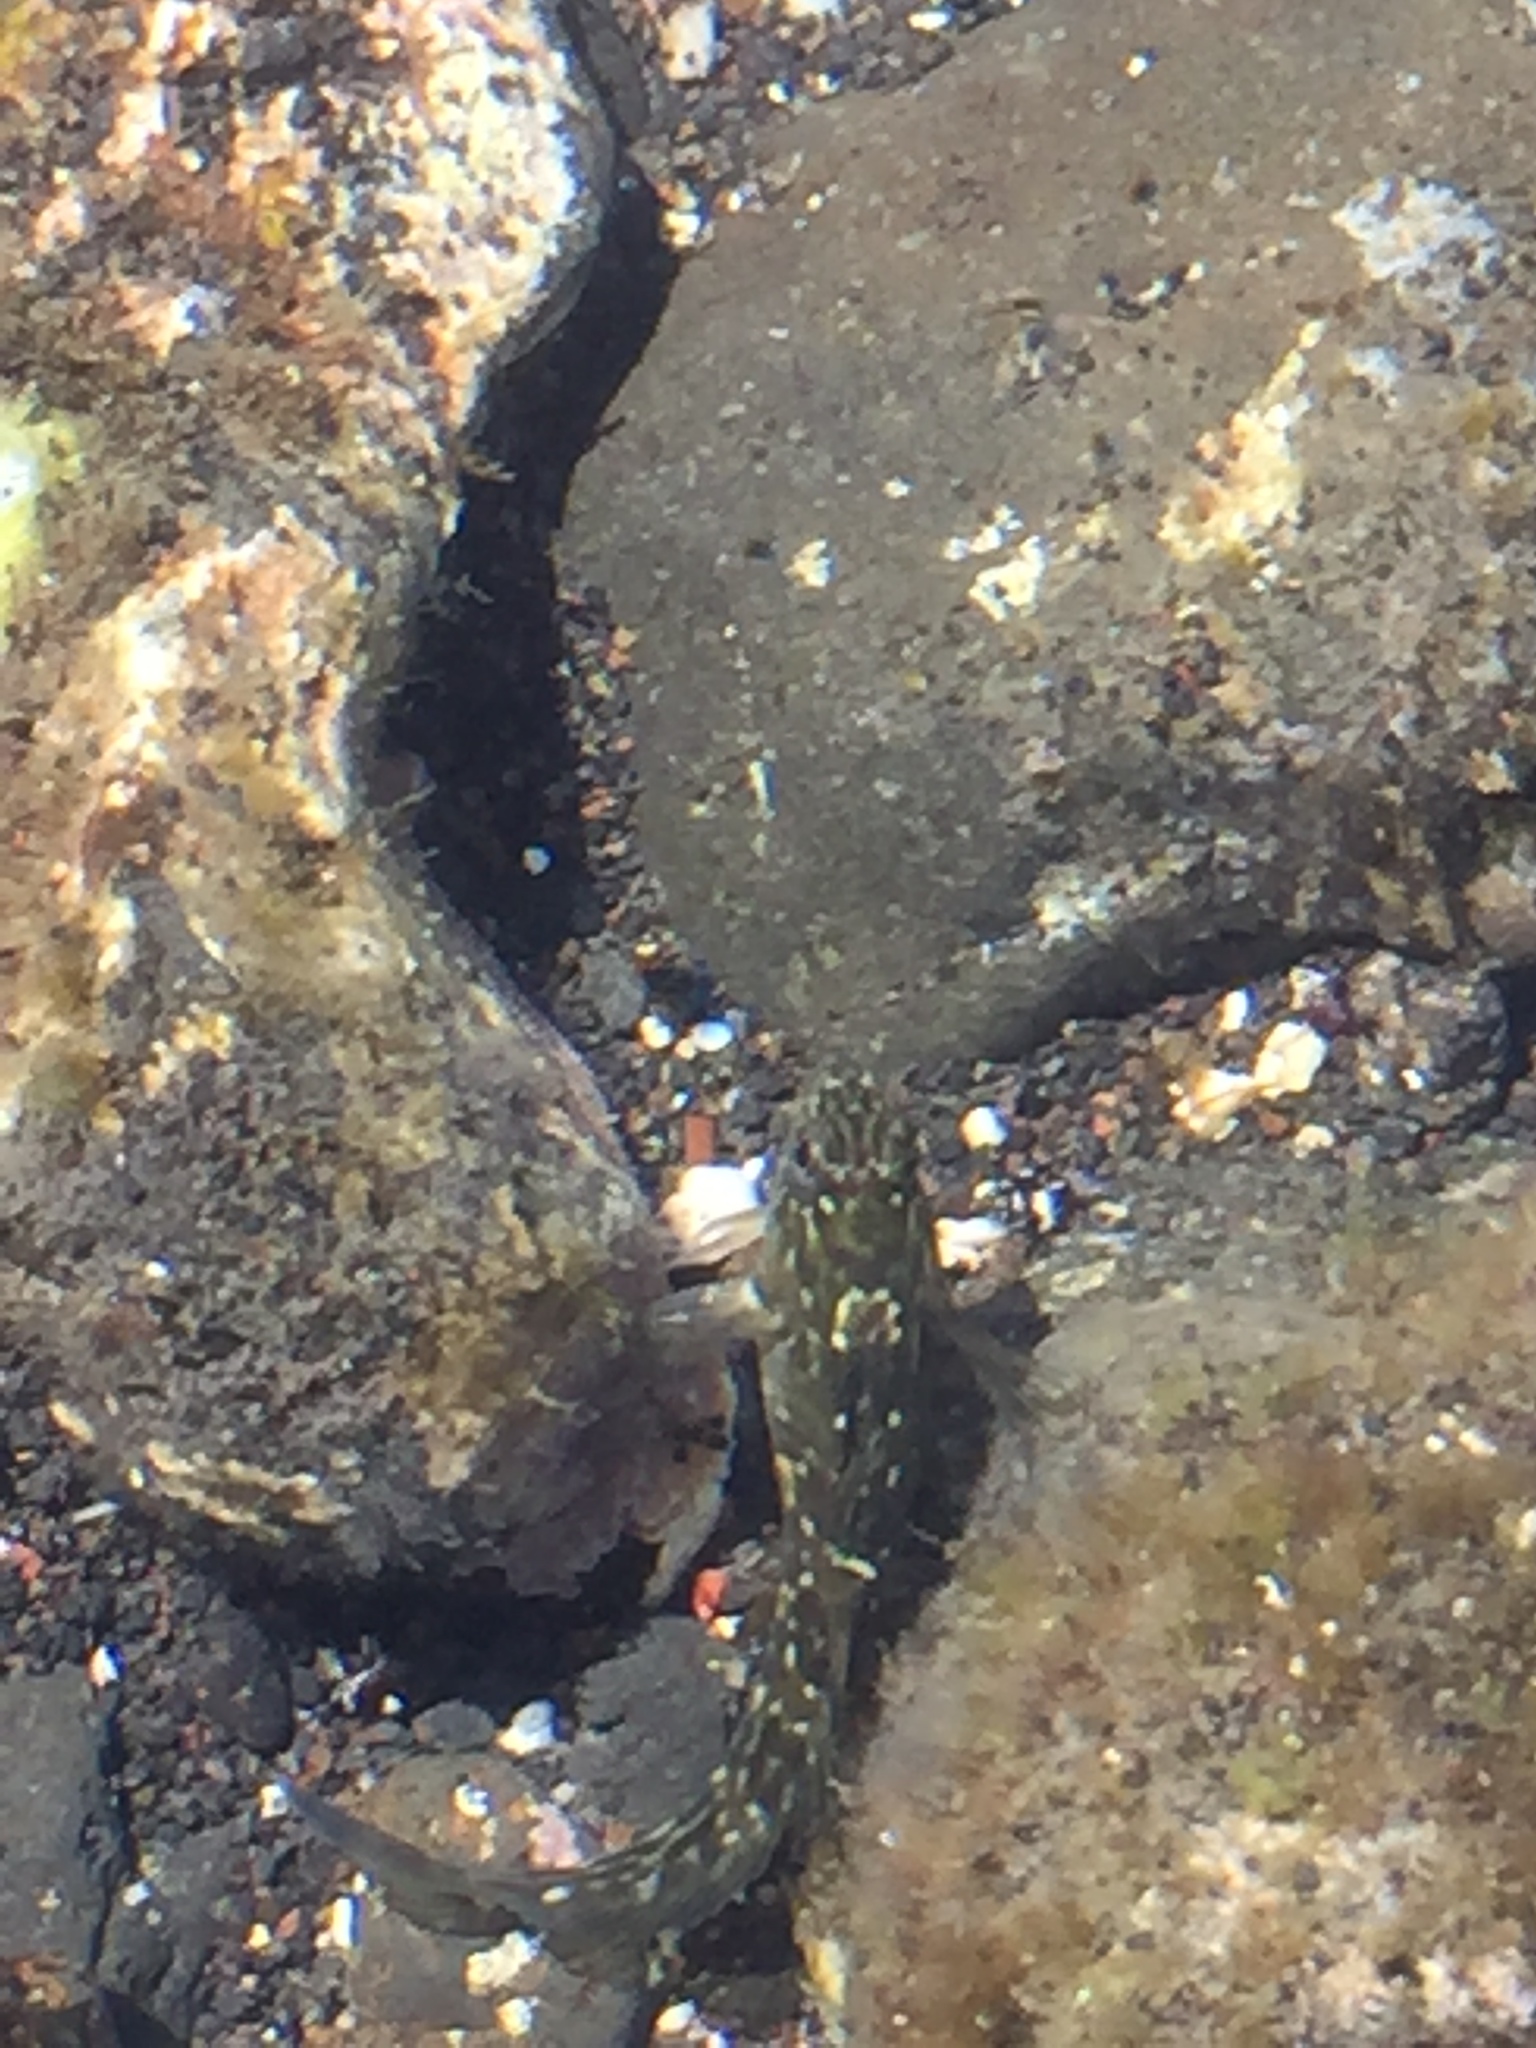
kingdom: Animalia
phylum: Chordata
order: Perciformes
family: Blenniidae
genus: Parablennius
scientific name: Parablennius parvicornis
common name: Rock-pool blenny
